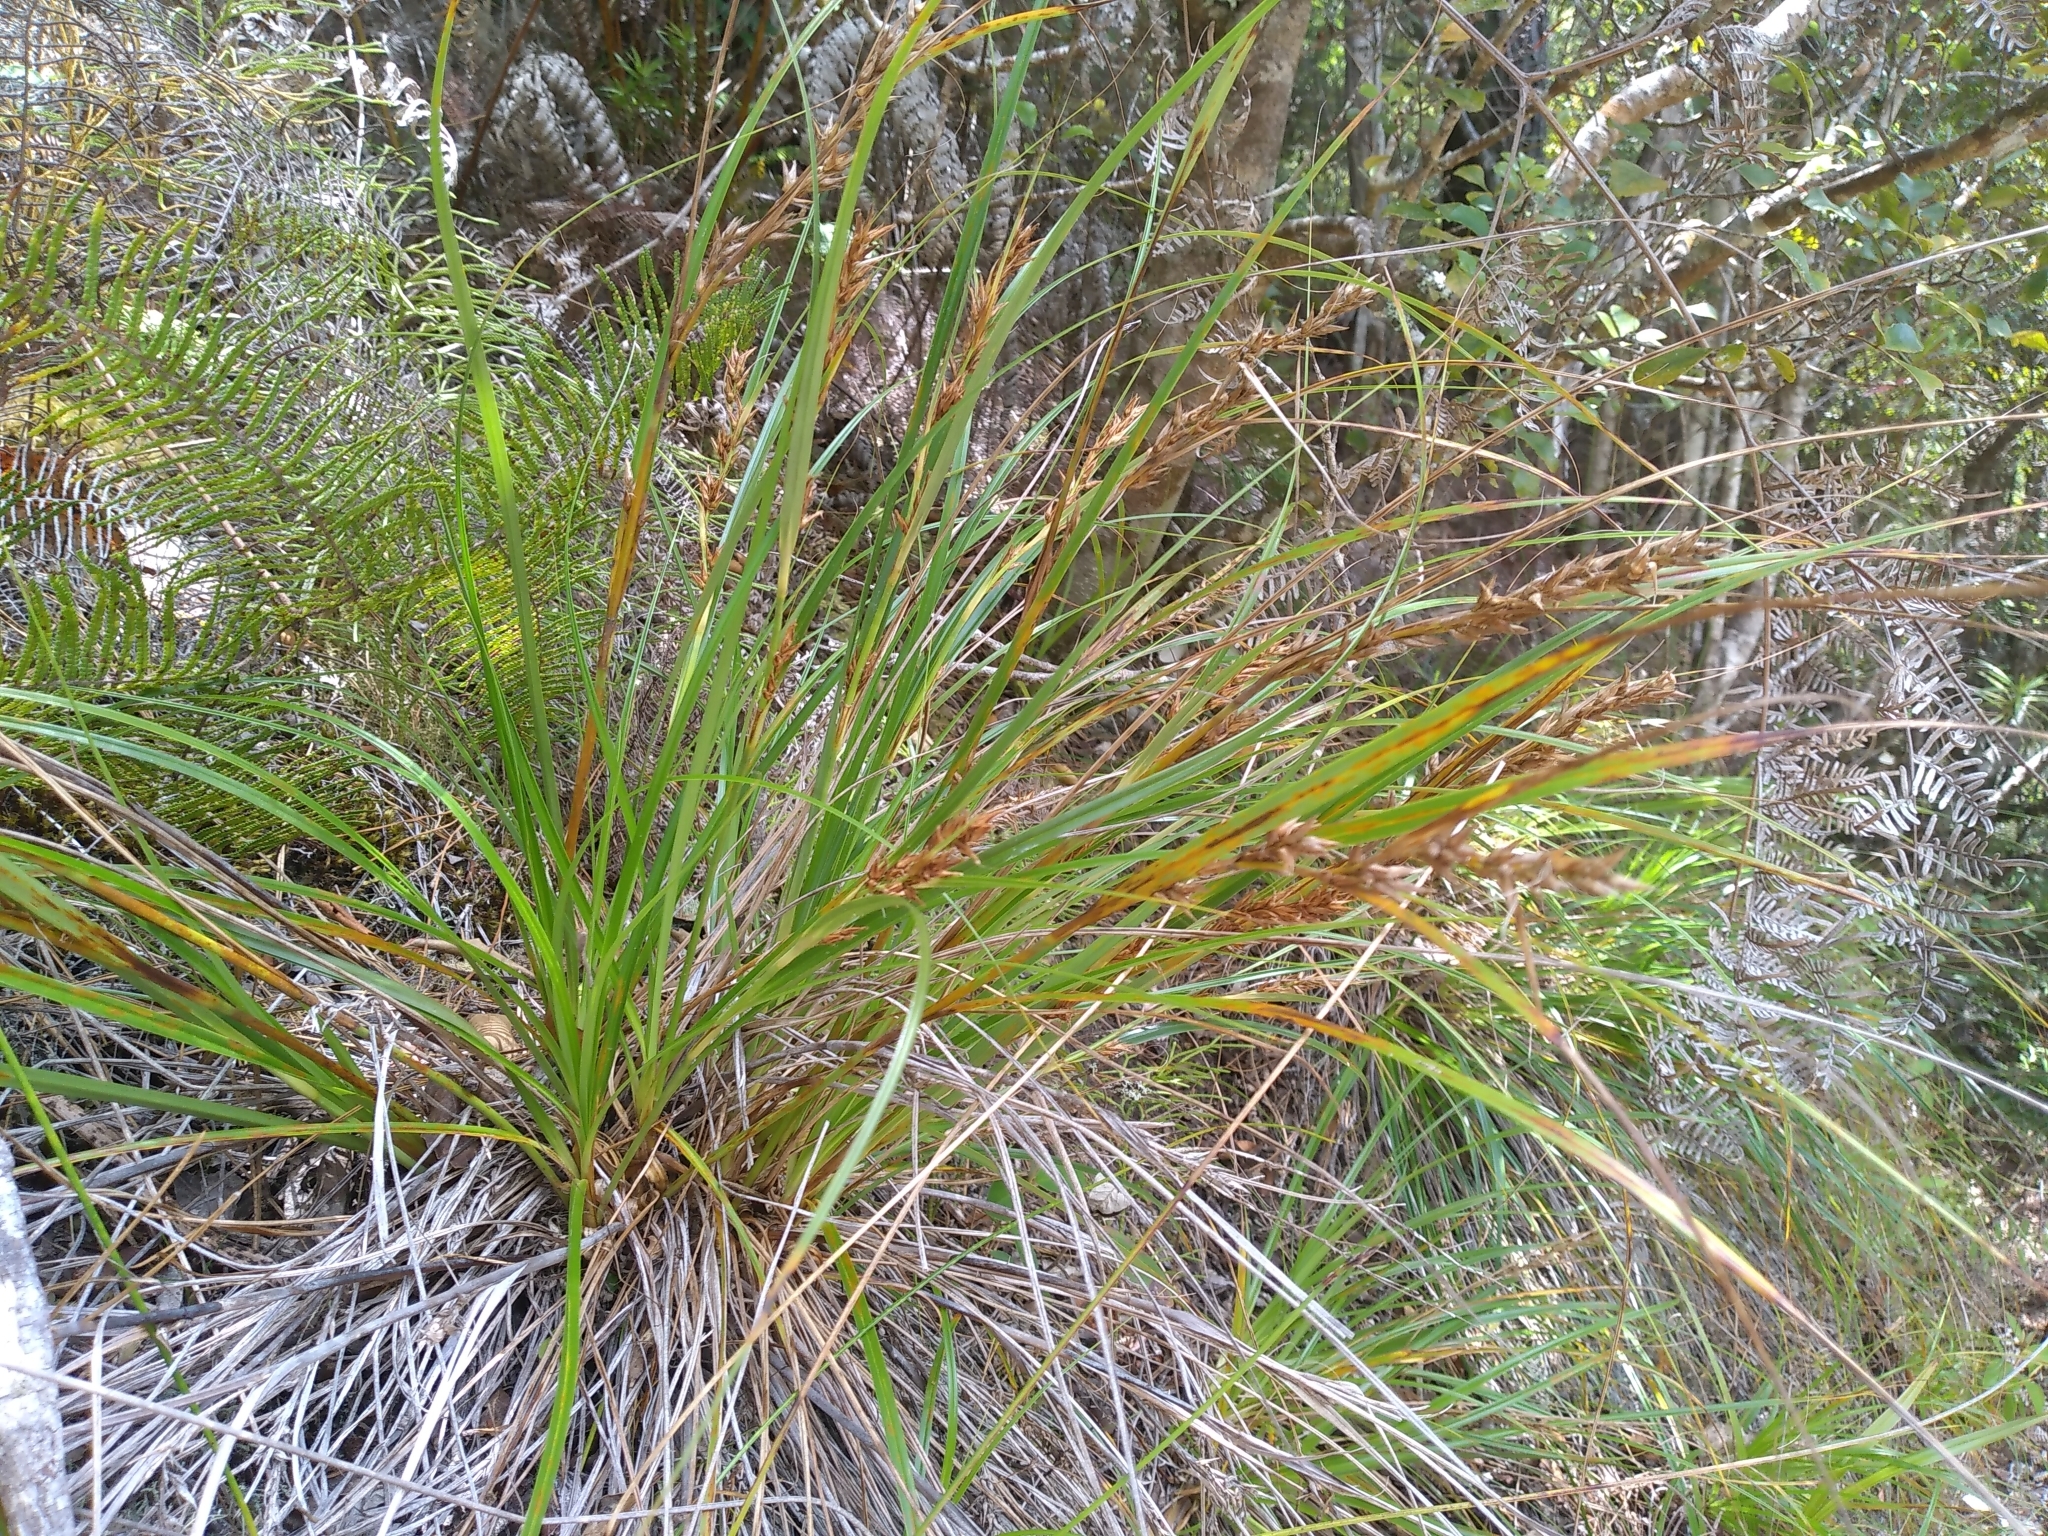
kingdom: Plantae
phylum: Tracheophyta
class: Liliopsida
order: Poales
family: Cyperaceae
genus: Morelotia
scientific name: Morelotia affinis
